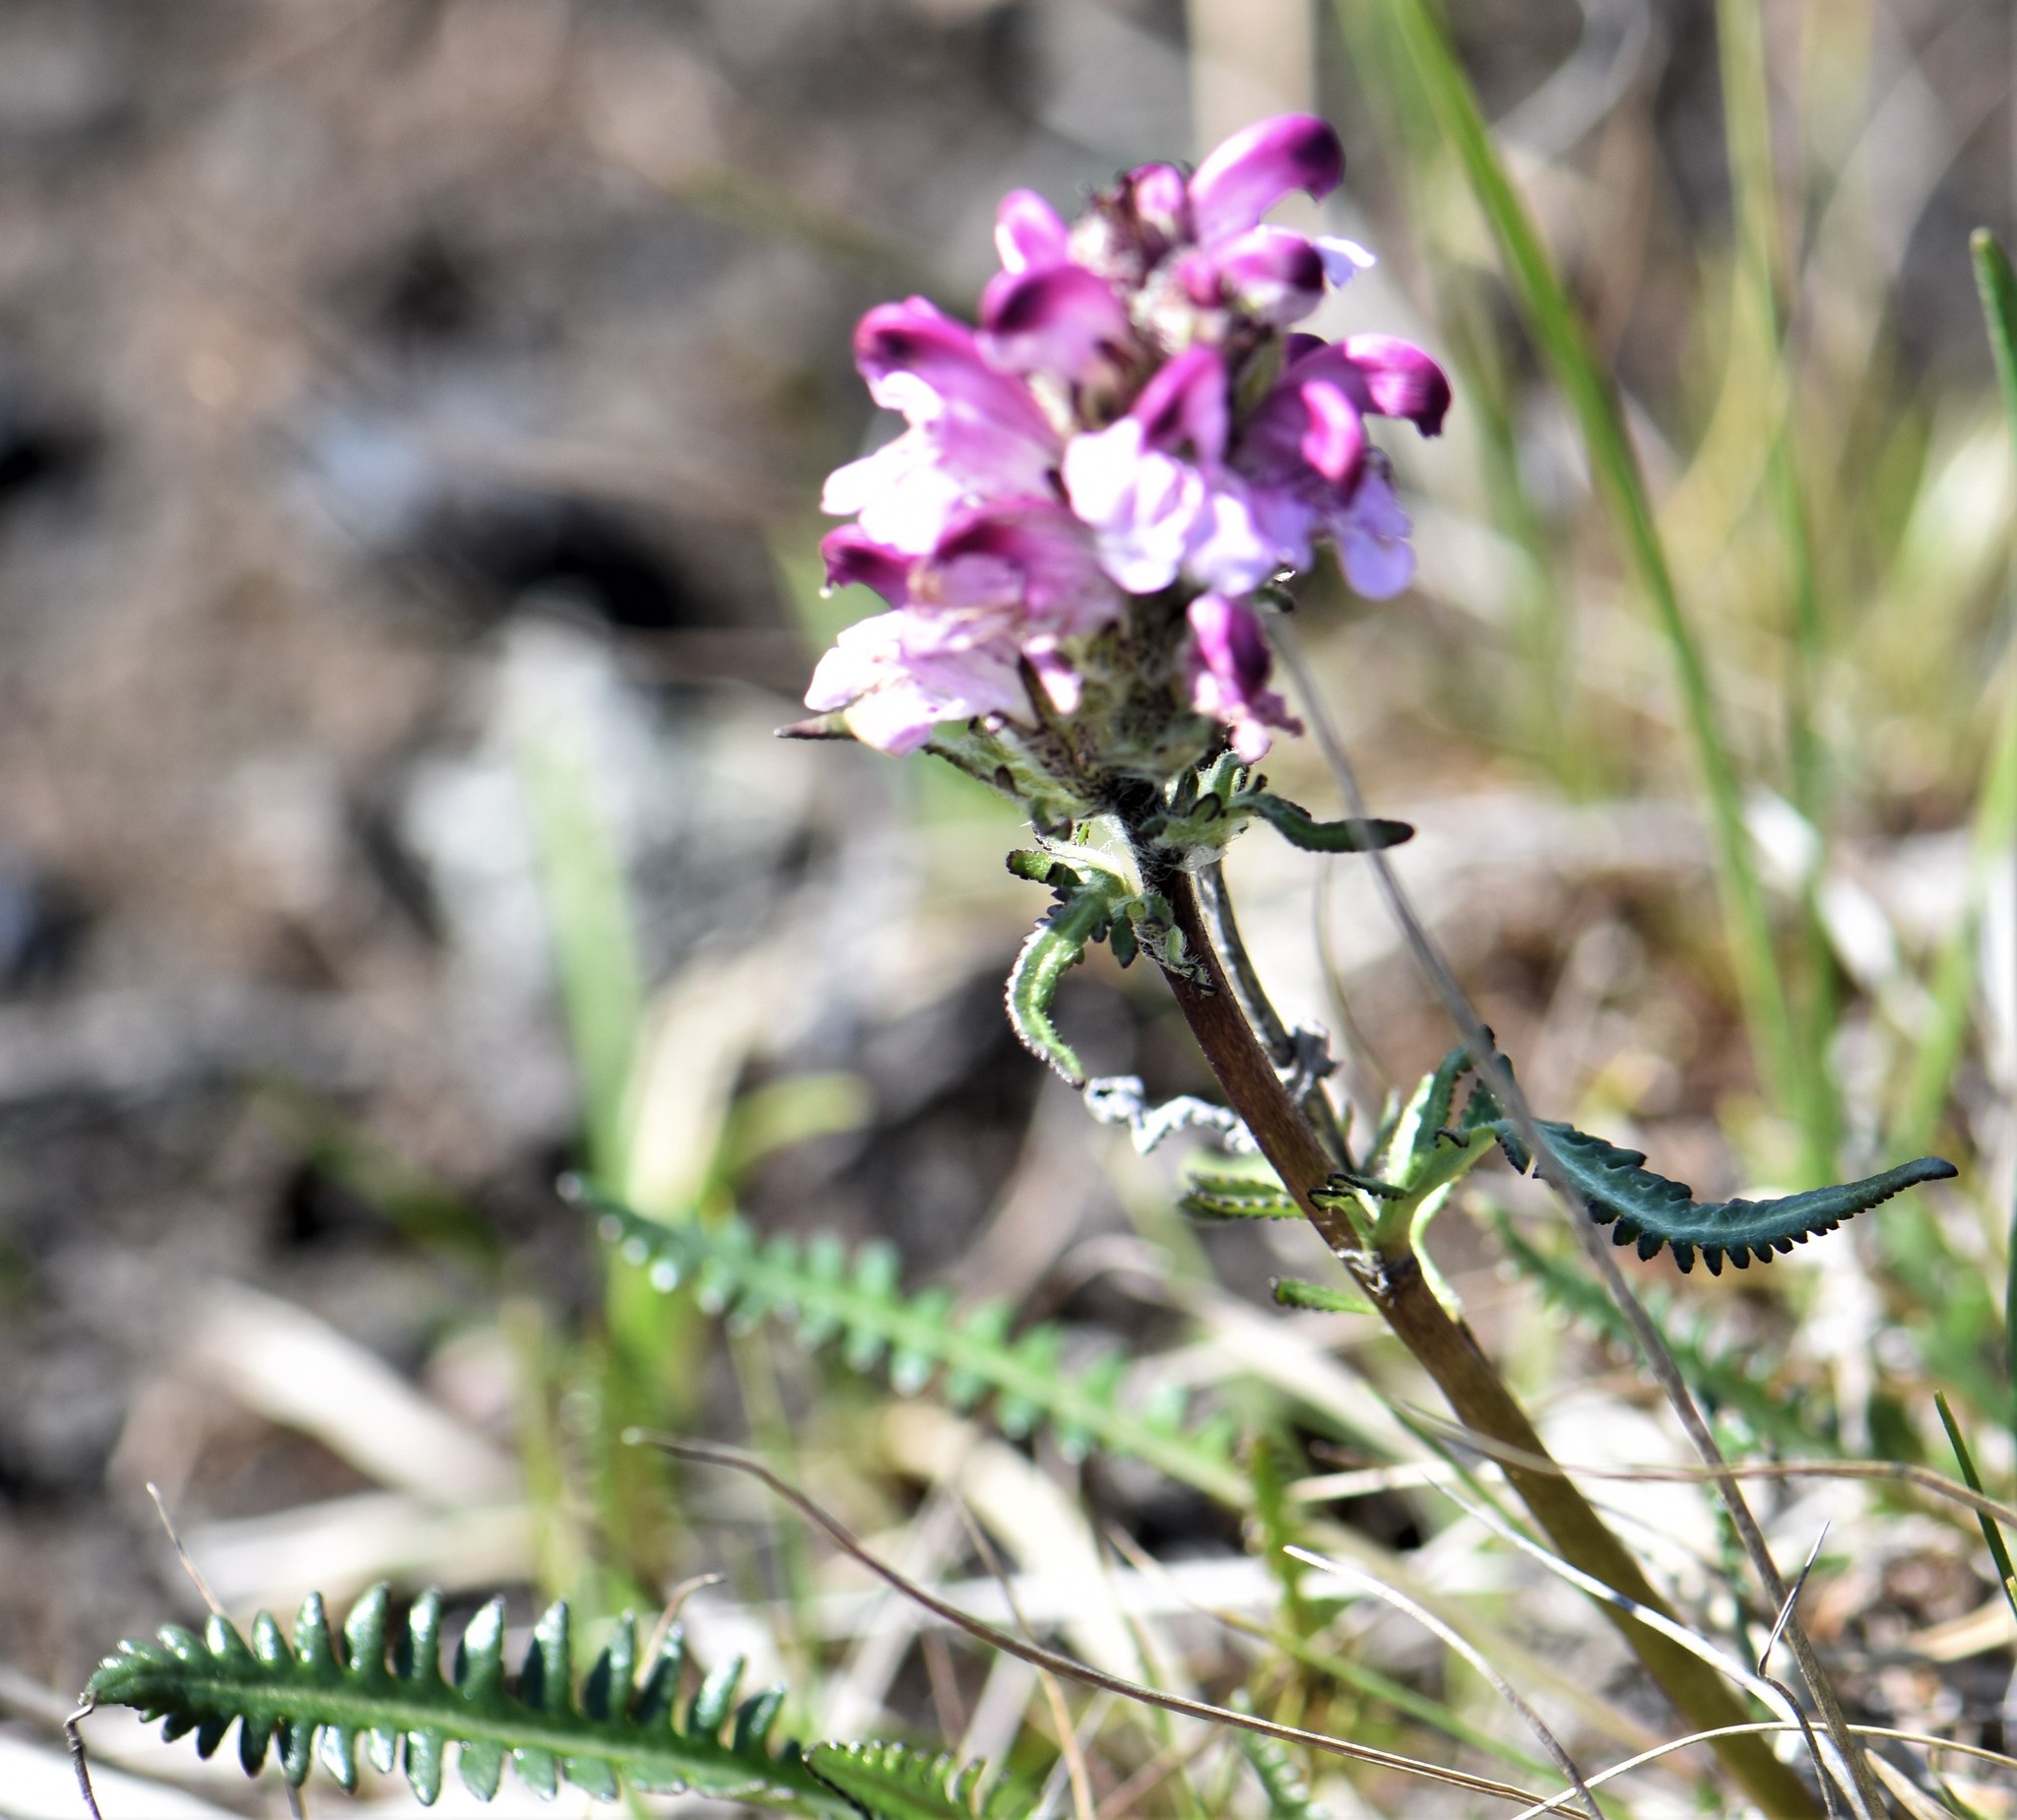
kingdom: Plantae
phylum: Tracheophyta
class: Magnoliopsida
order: Lamiales
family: Orobanchaceae
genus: Pedicularis
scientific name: Pedicularis novaiae-zemliae
